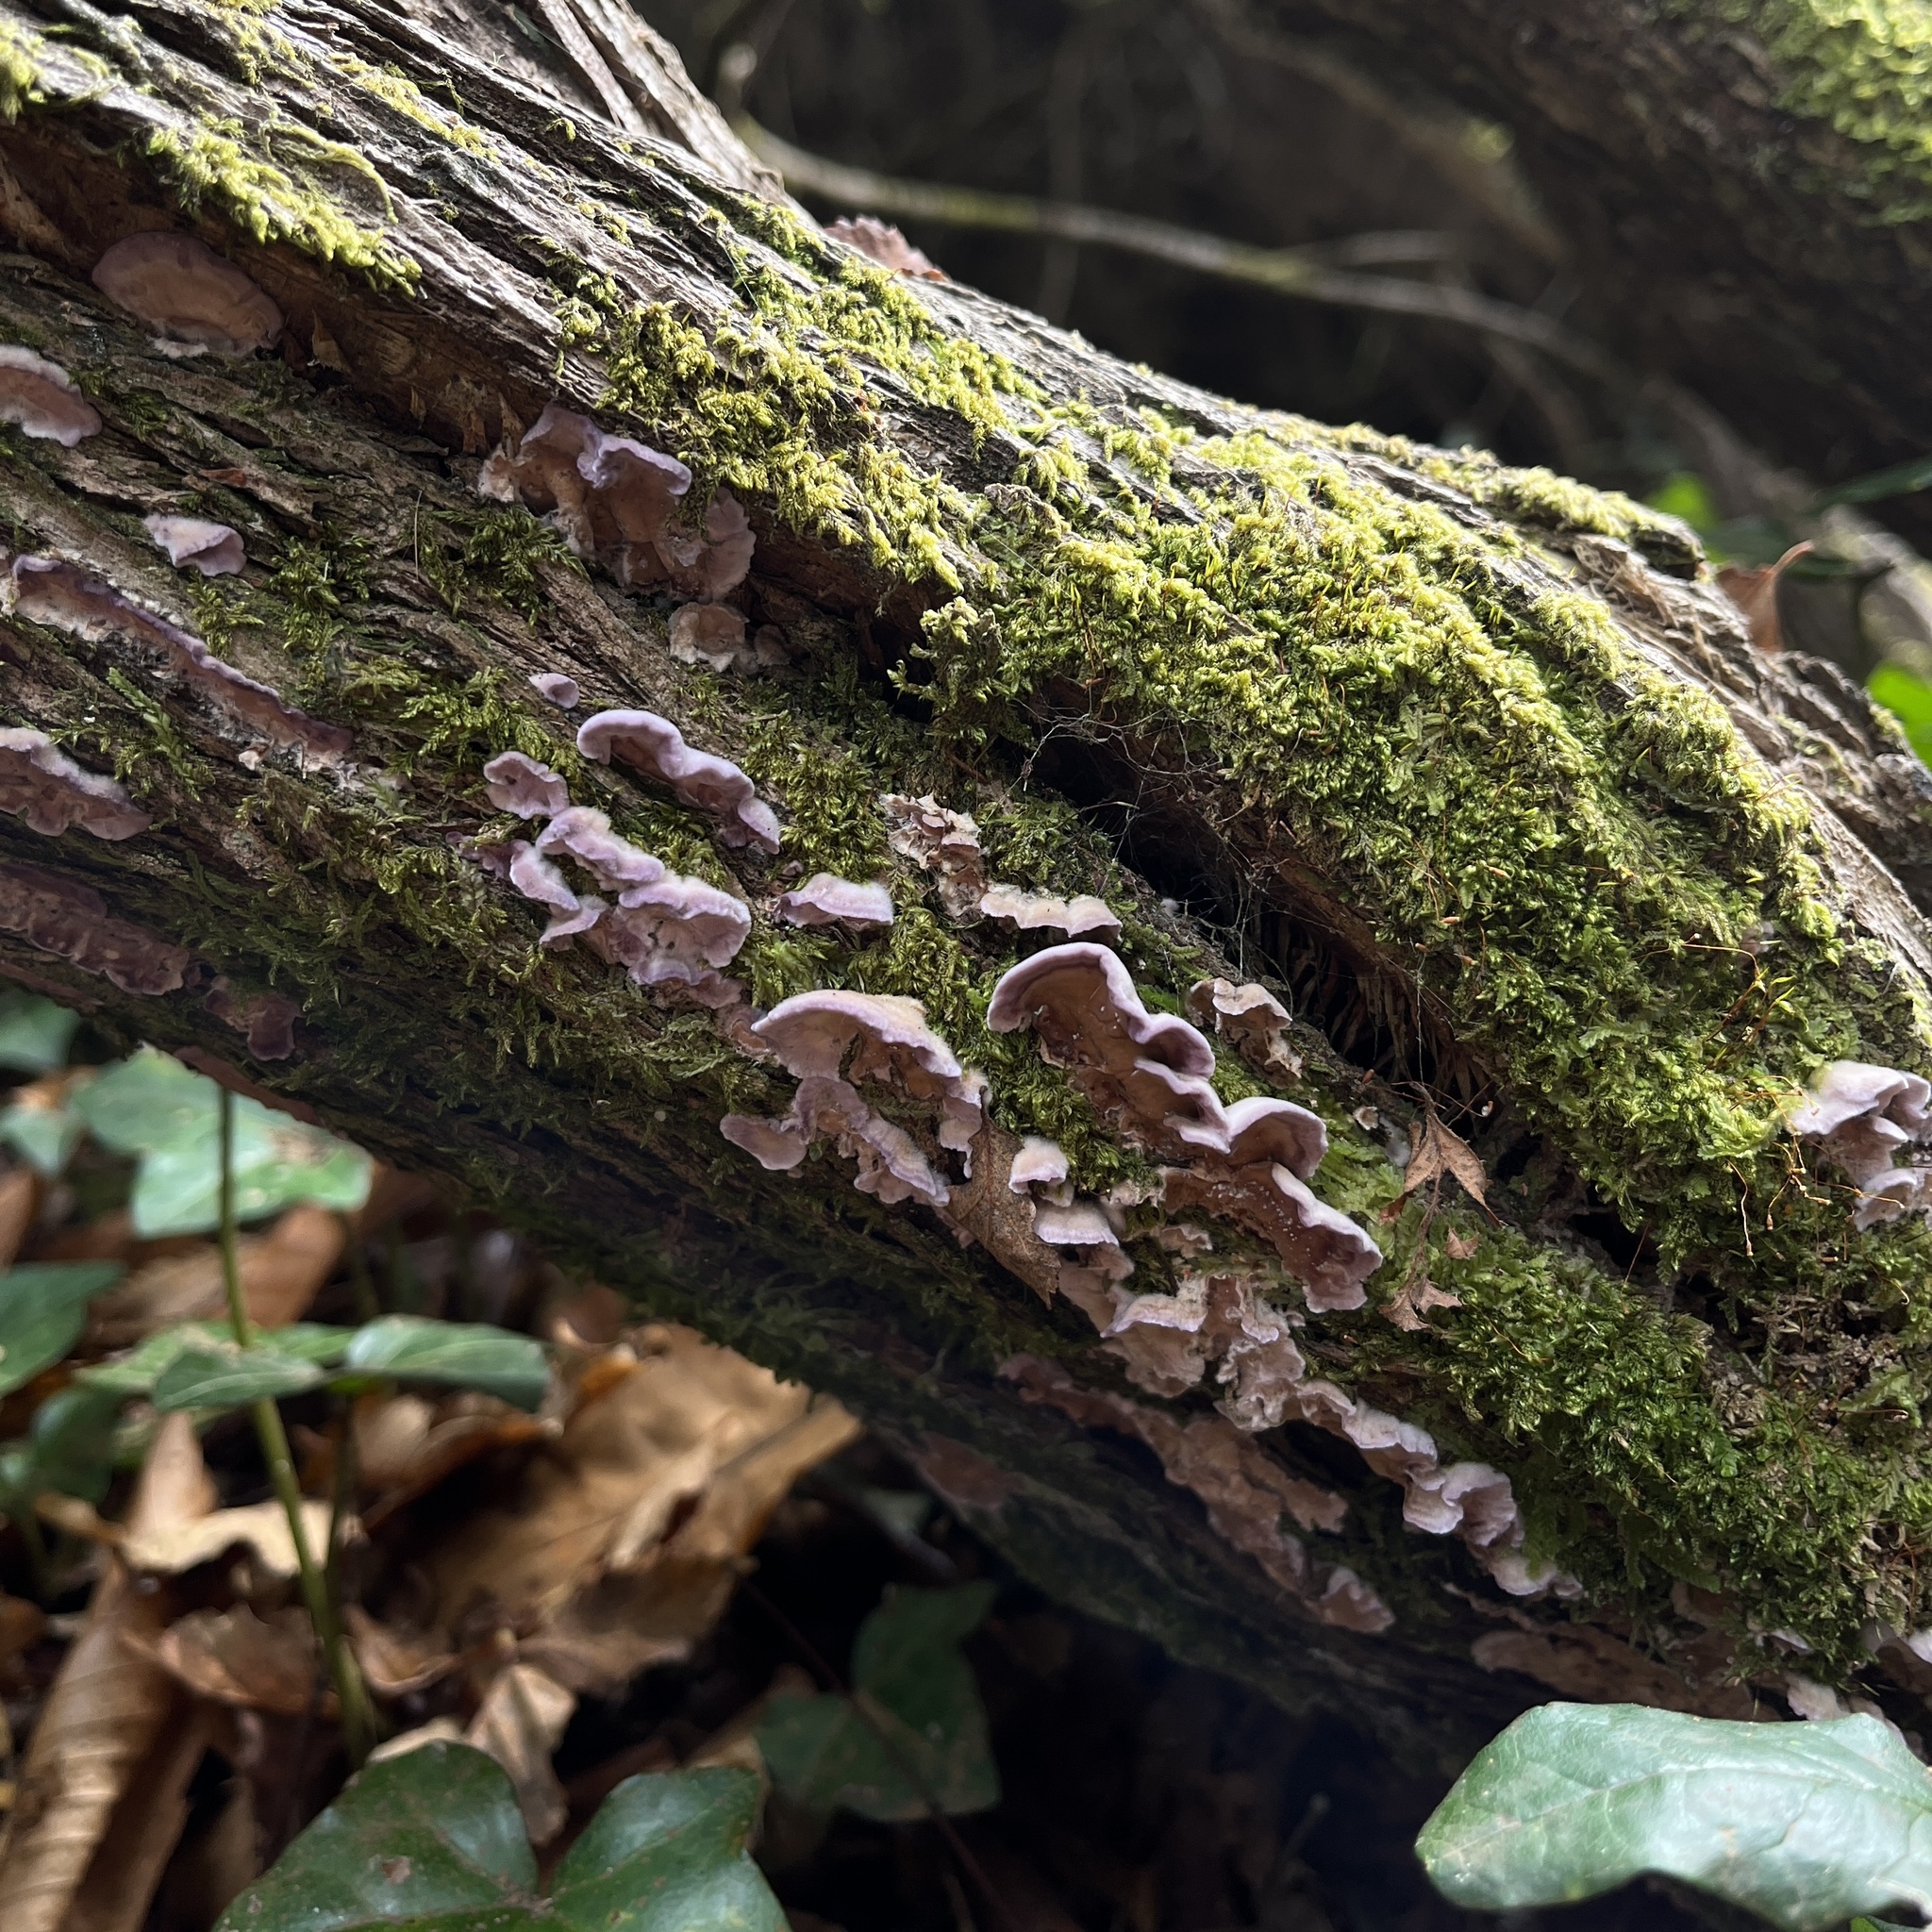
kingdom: Fungi
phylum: Basidiomycota
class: Agaricomycetes
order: Agaricales
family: Cyphellaceae
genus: Chondrostereum
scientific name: Chondrostereum purpureum
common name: Silver leaf disease
